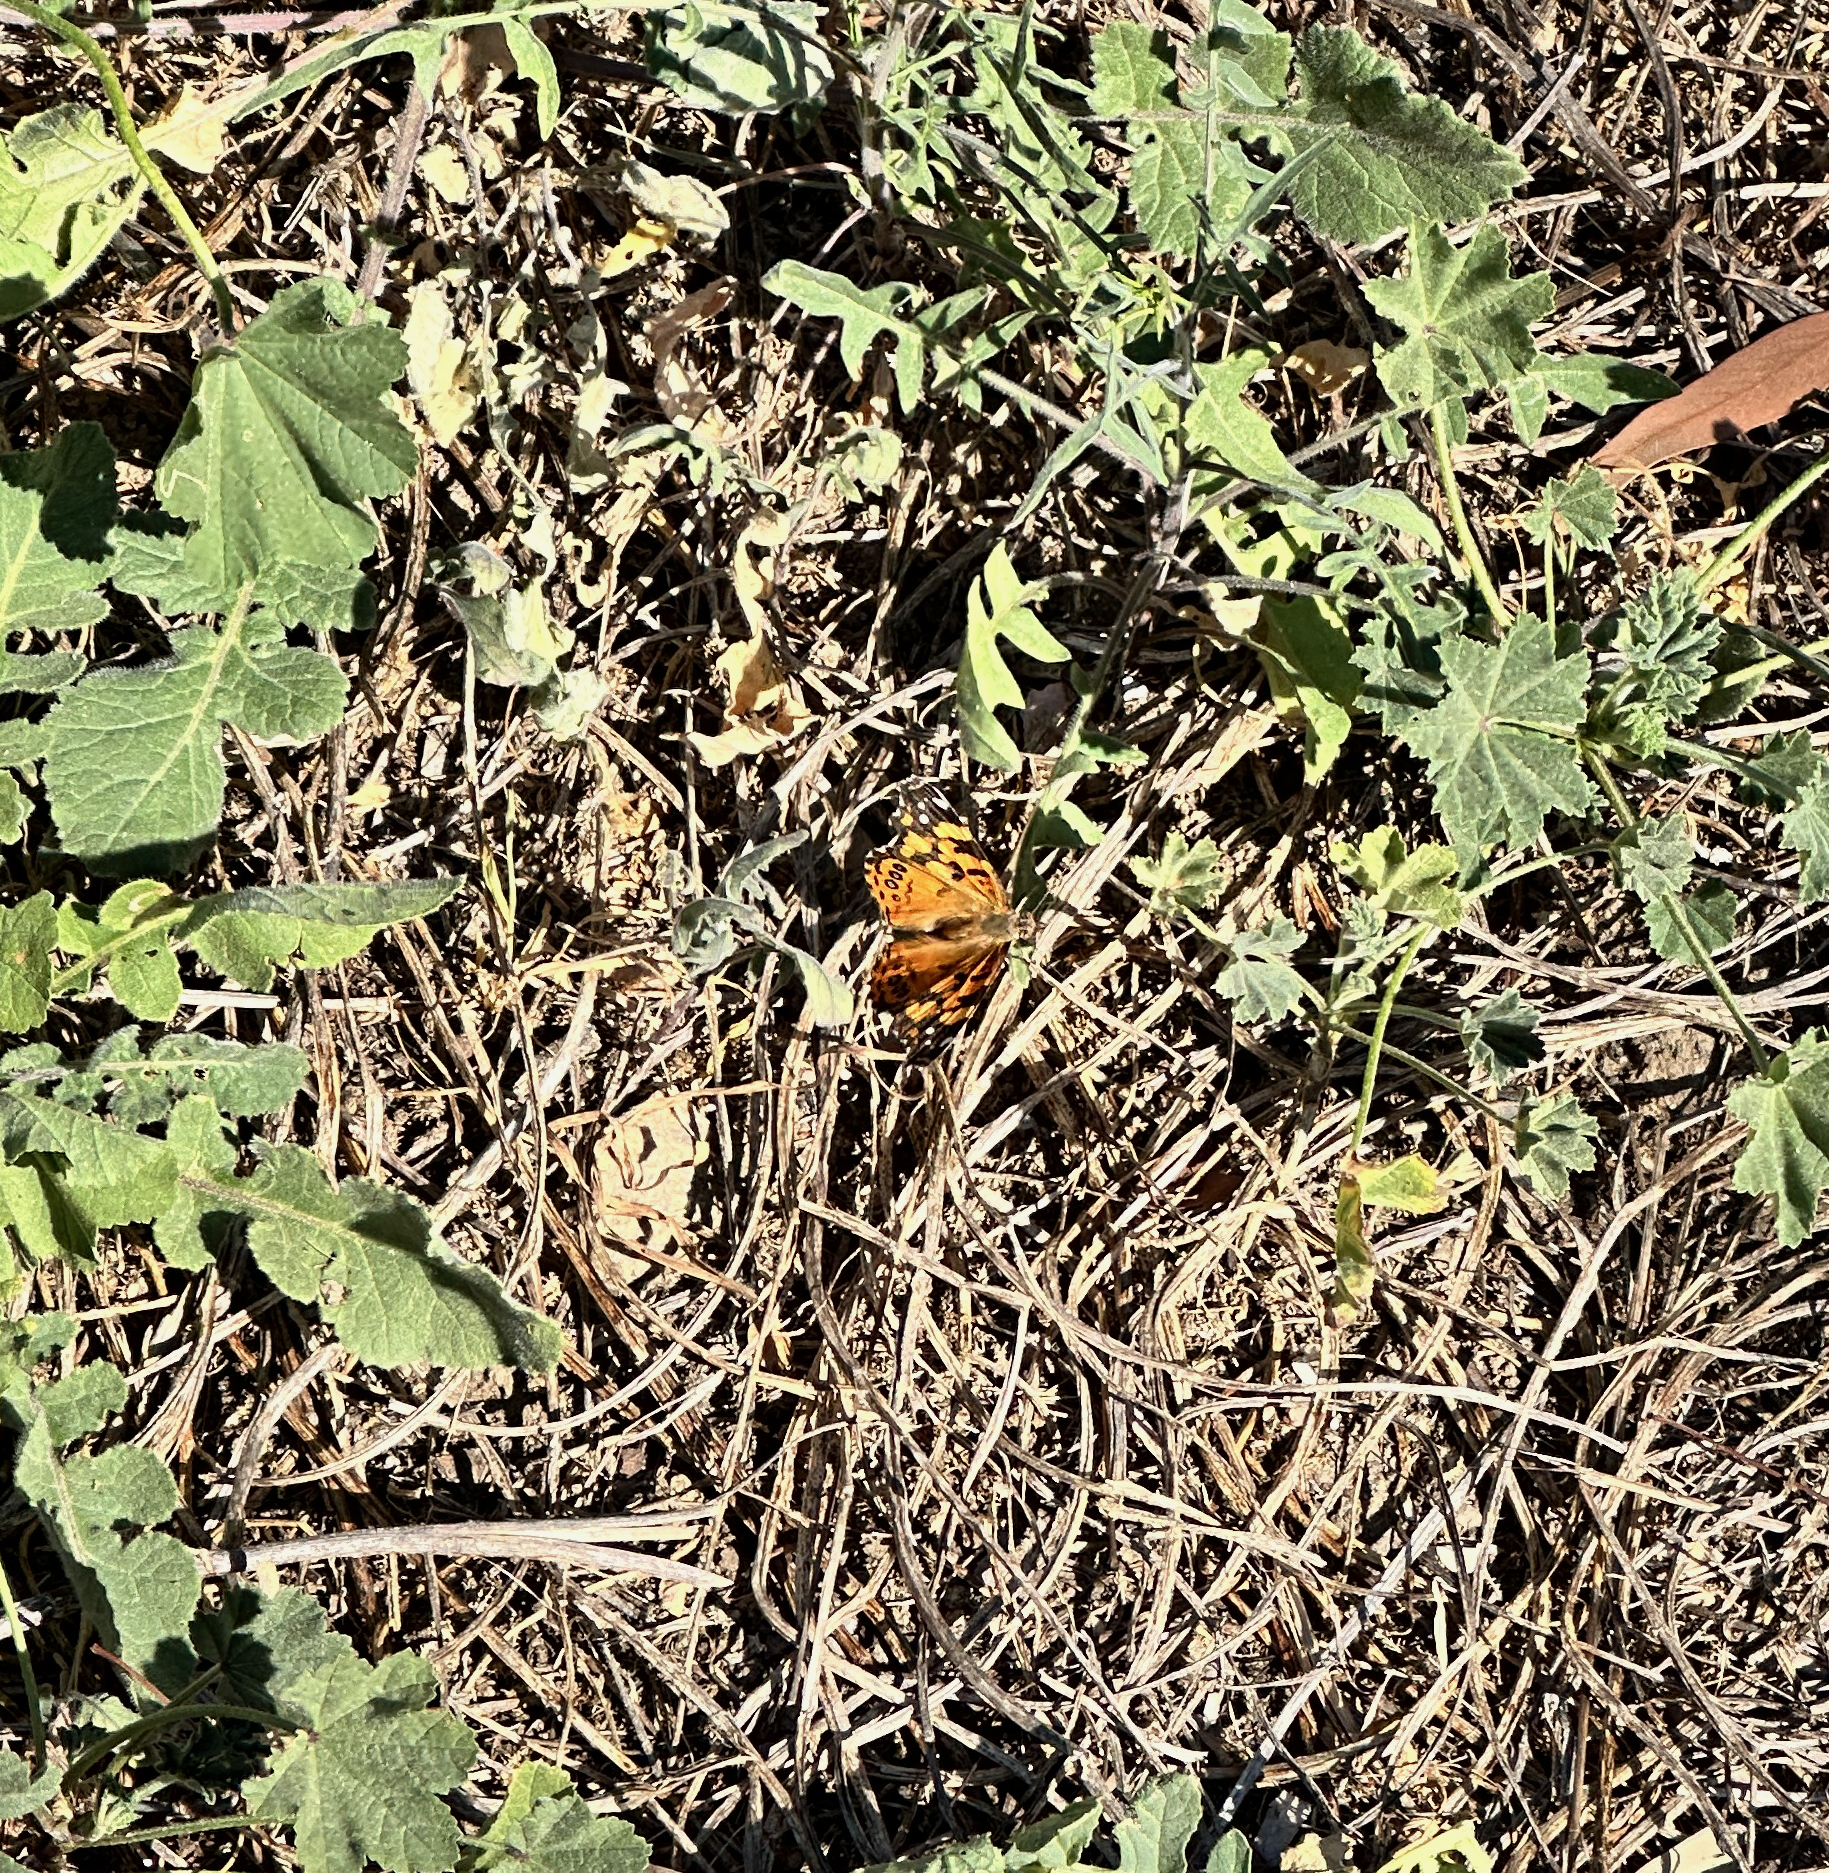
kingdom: Animalia
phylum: Arthropoda
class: Insecta
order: Lepidoptera
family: Nymphalidae
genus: Vanessa
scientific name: Vanessa annabella
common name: West coast lady
